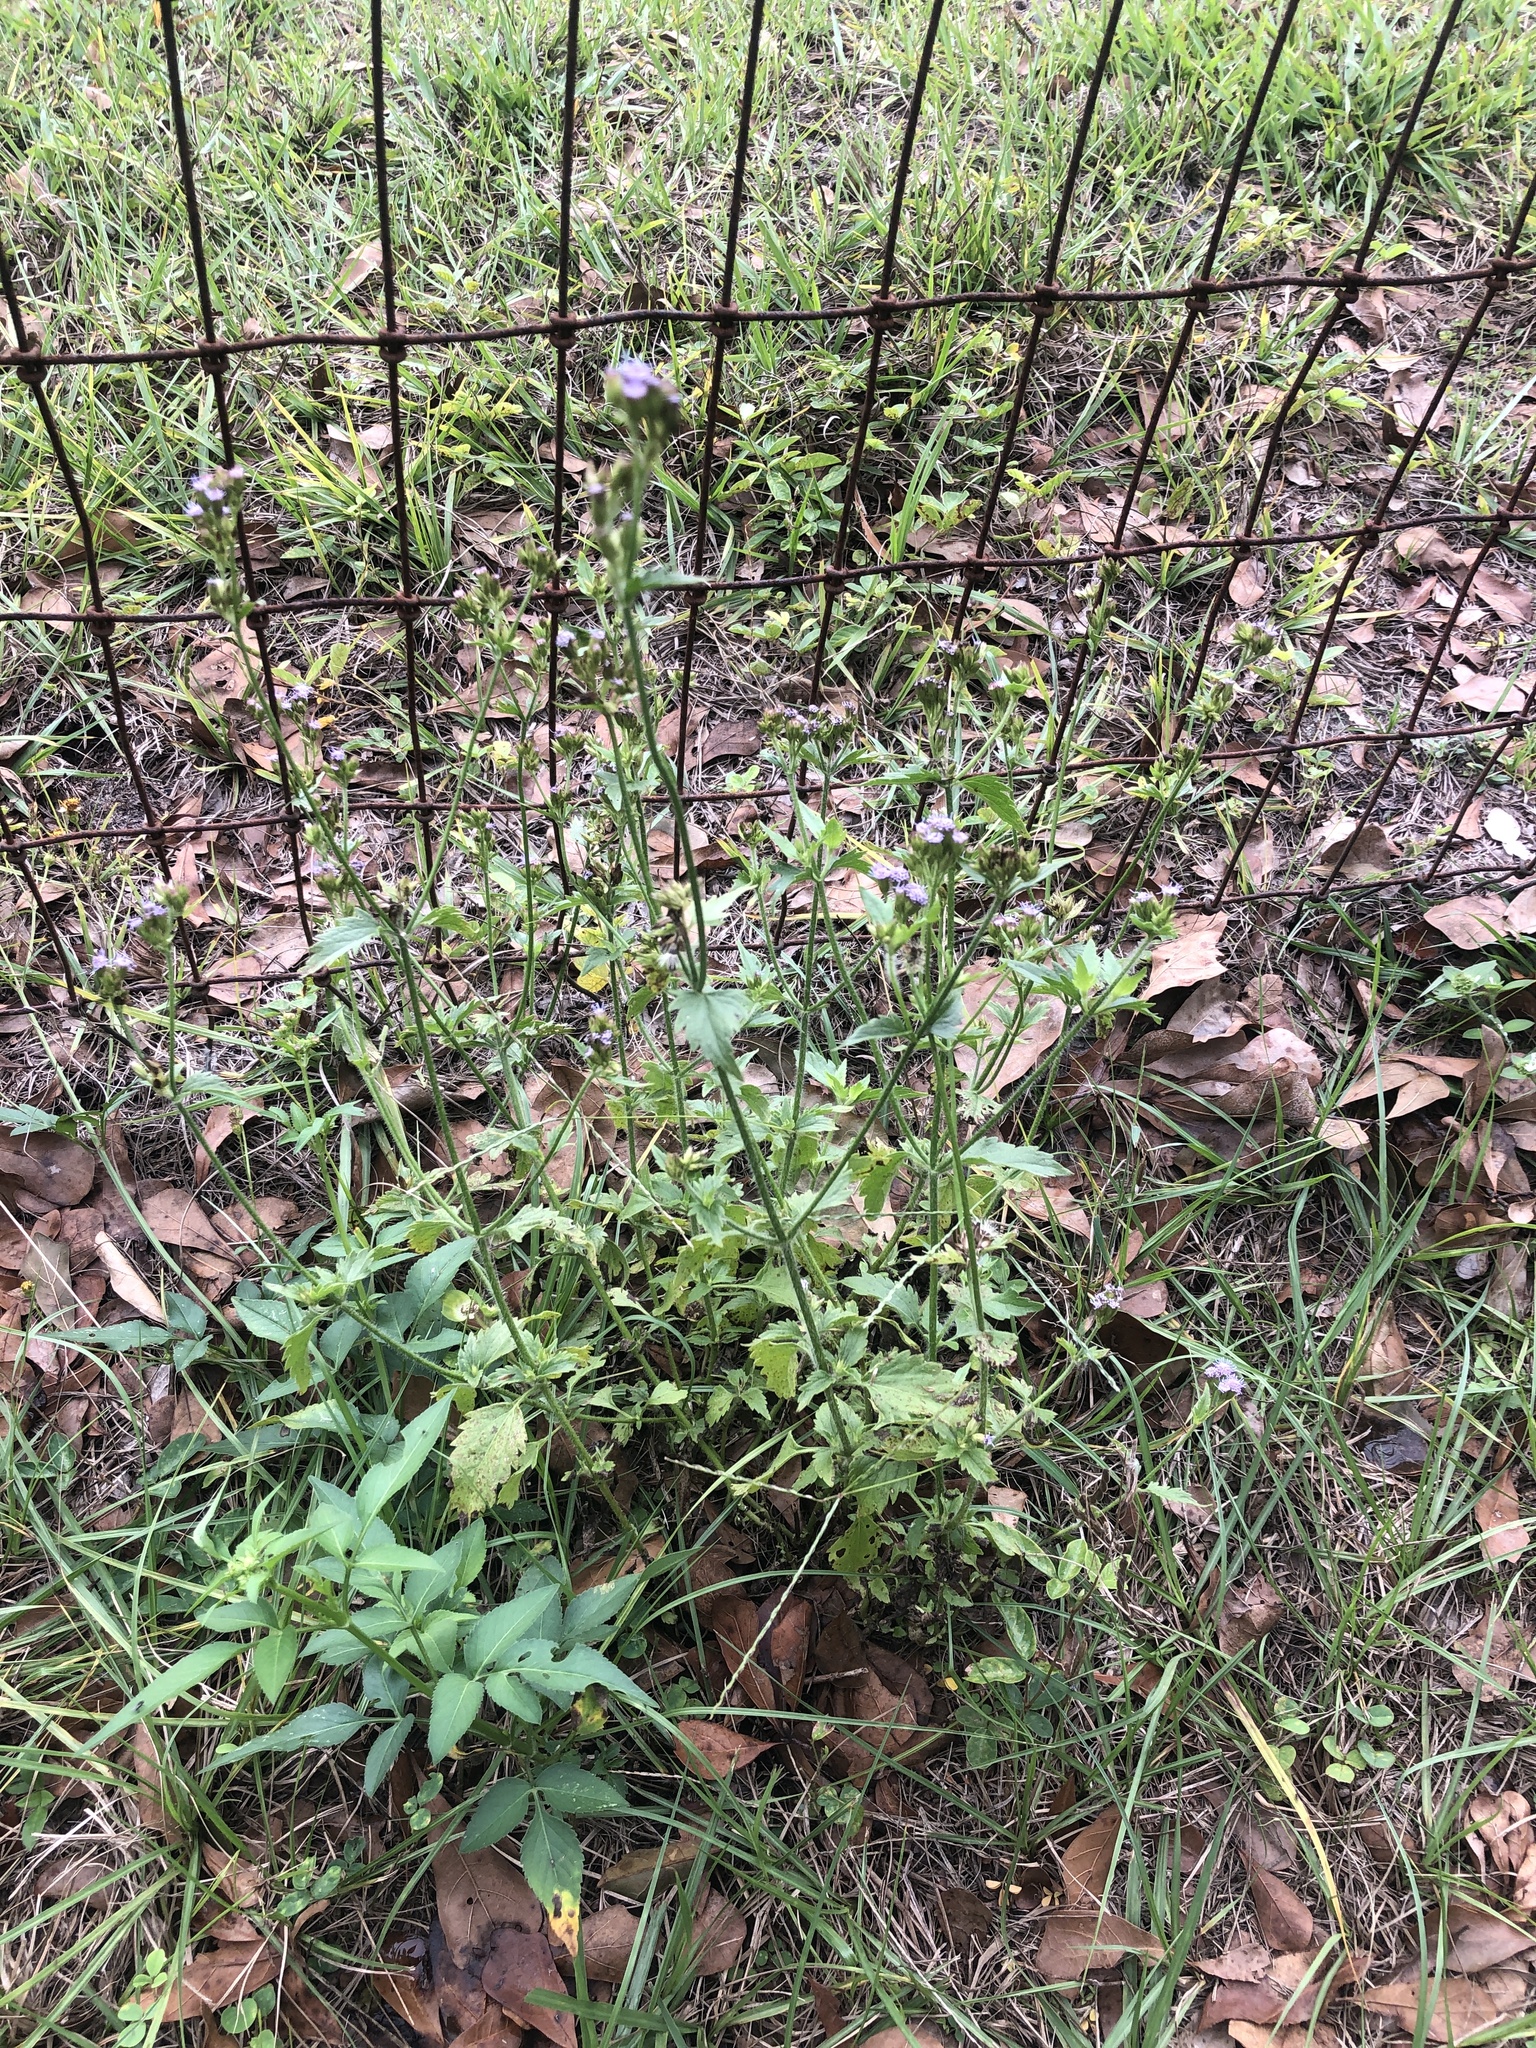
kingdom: Plantae
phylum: Tracheophyta
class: Magnoliopsida
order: Asterales
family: Asteraceae
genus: Praxelis
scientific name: Praxelis clematidea
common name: Praxelis
